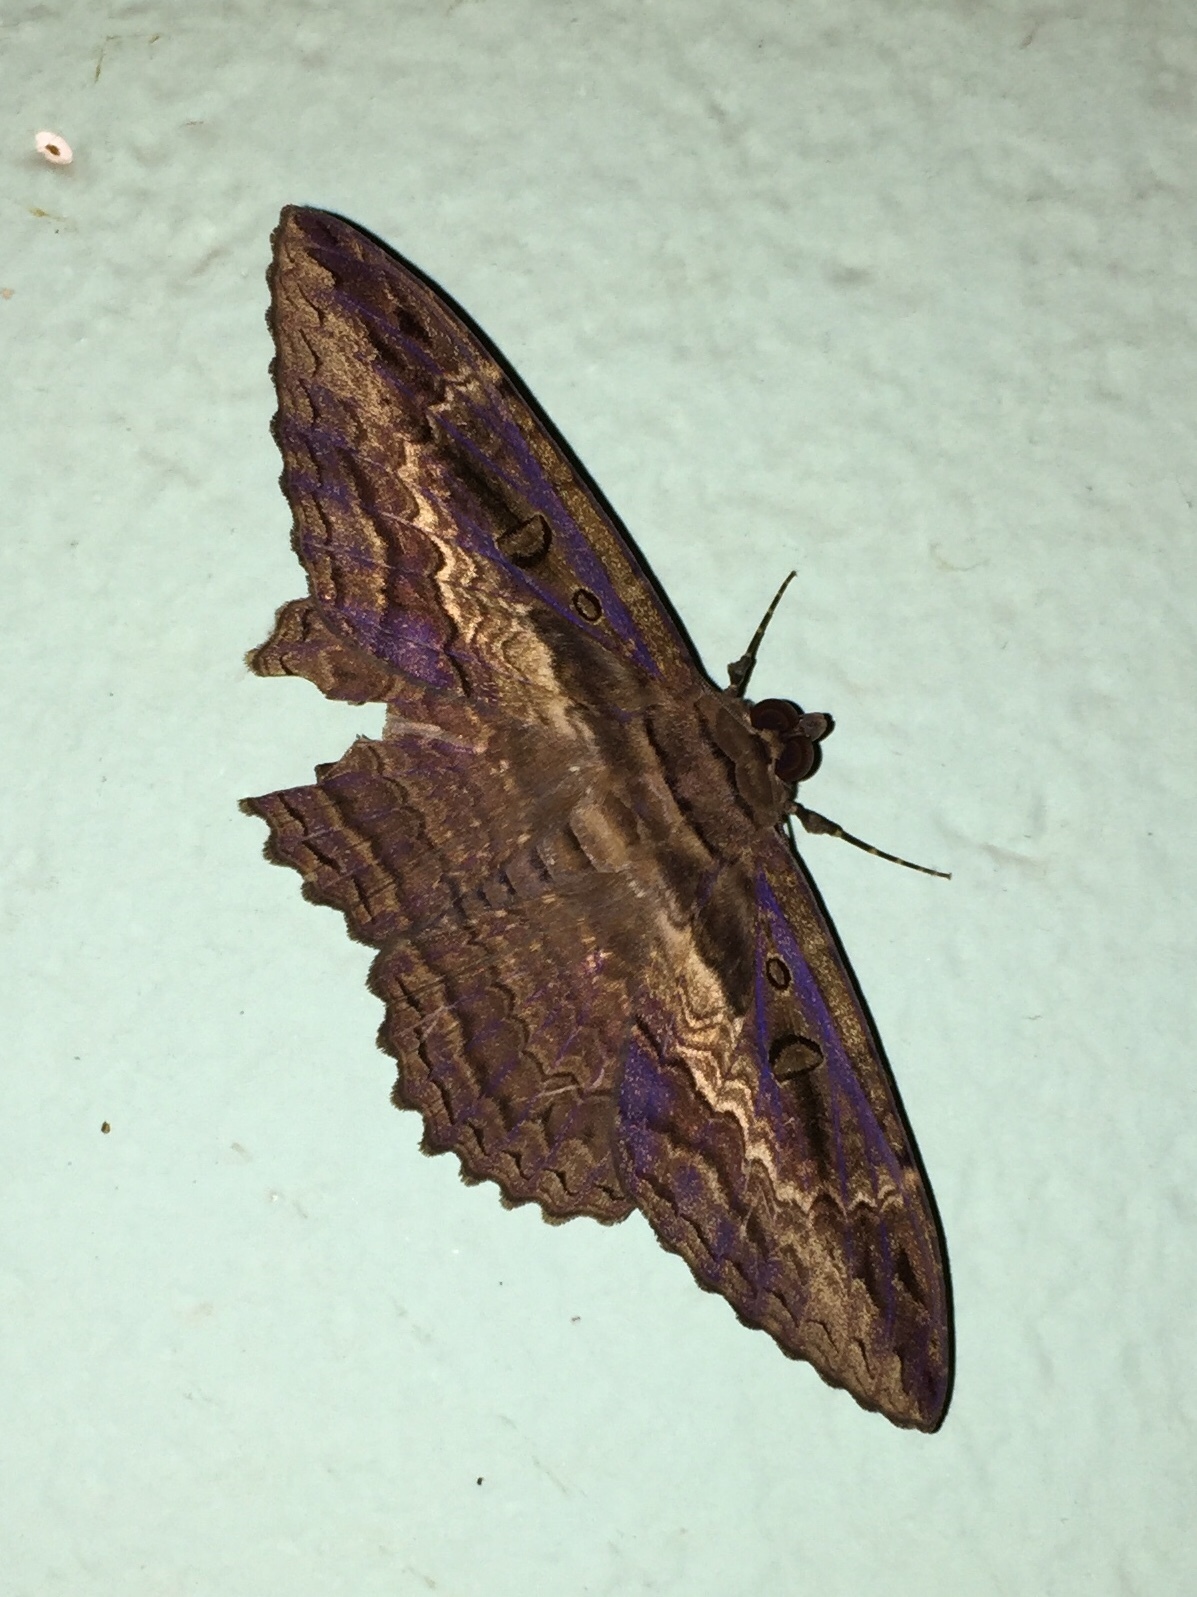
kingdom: Animalia
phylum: Arthropoda
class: Insecta
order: Lepidoptera
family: Erebidae
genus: Feigeria
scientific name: Feigeria buteo
